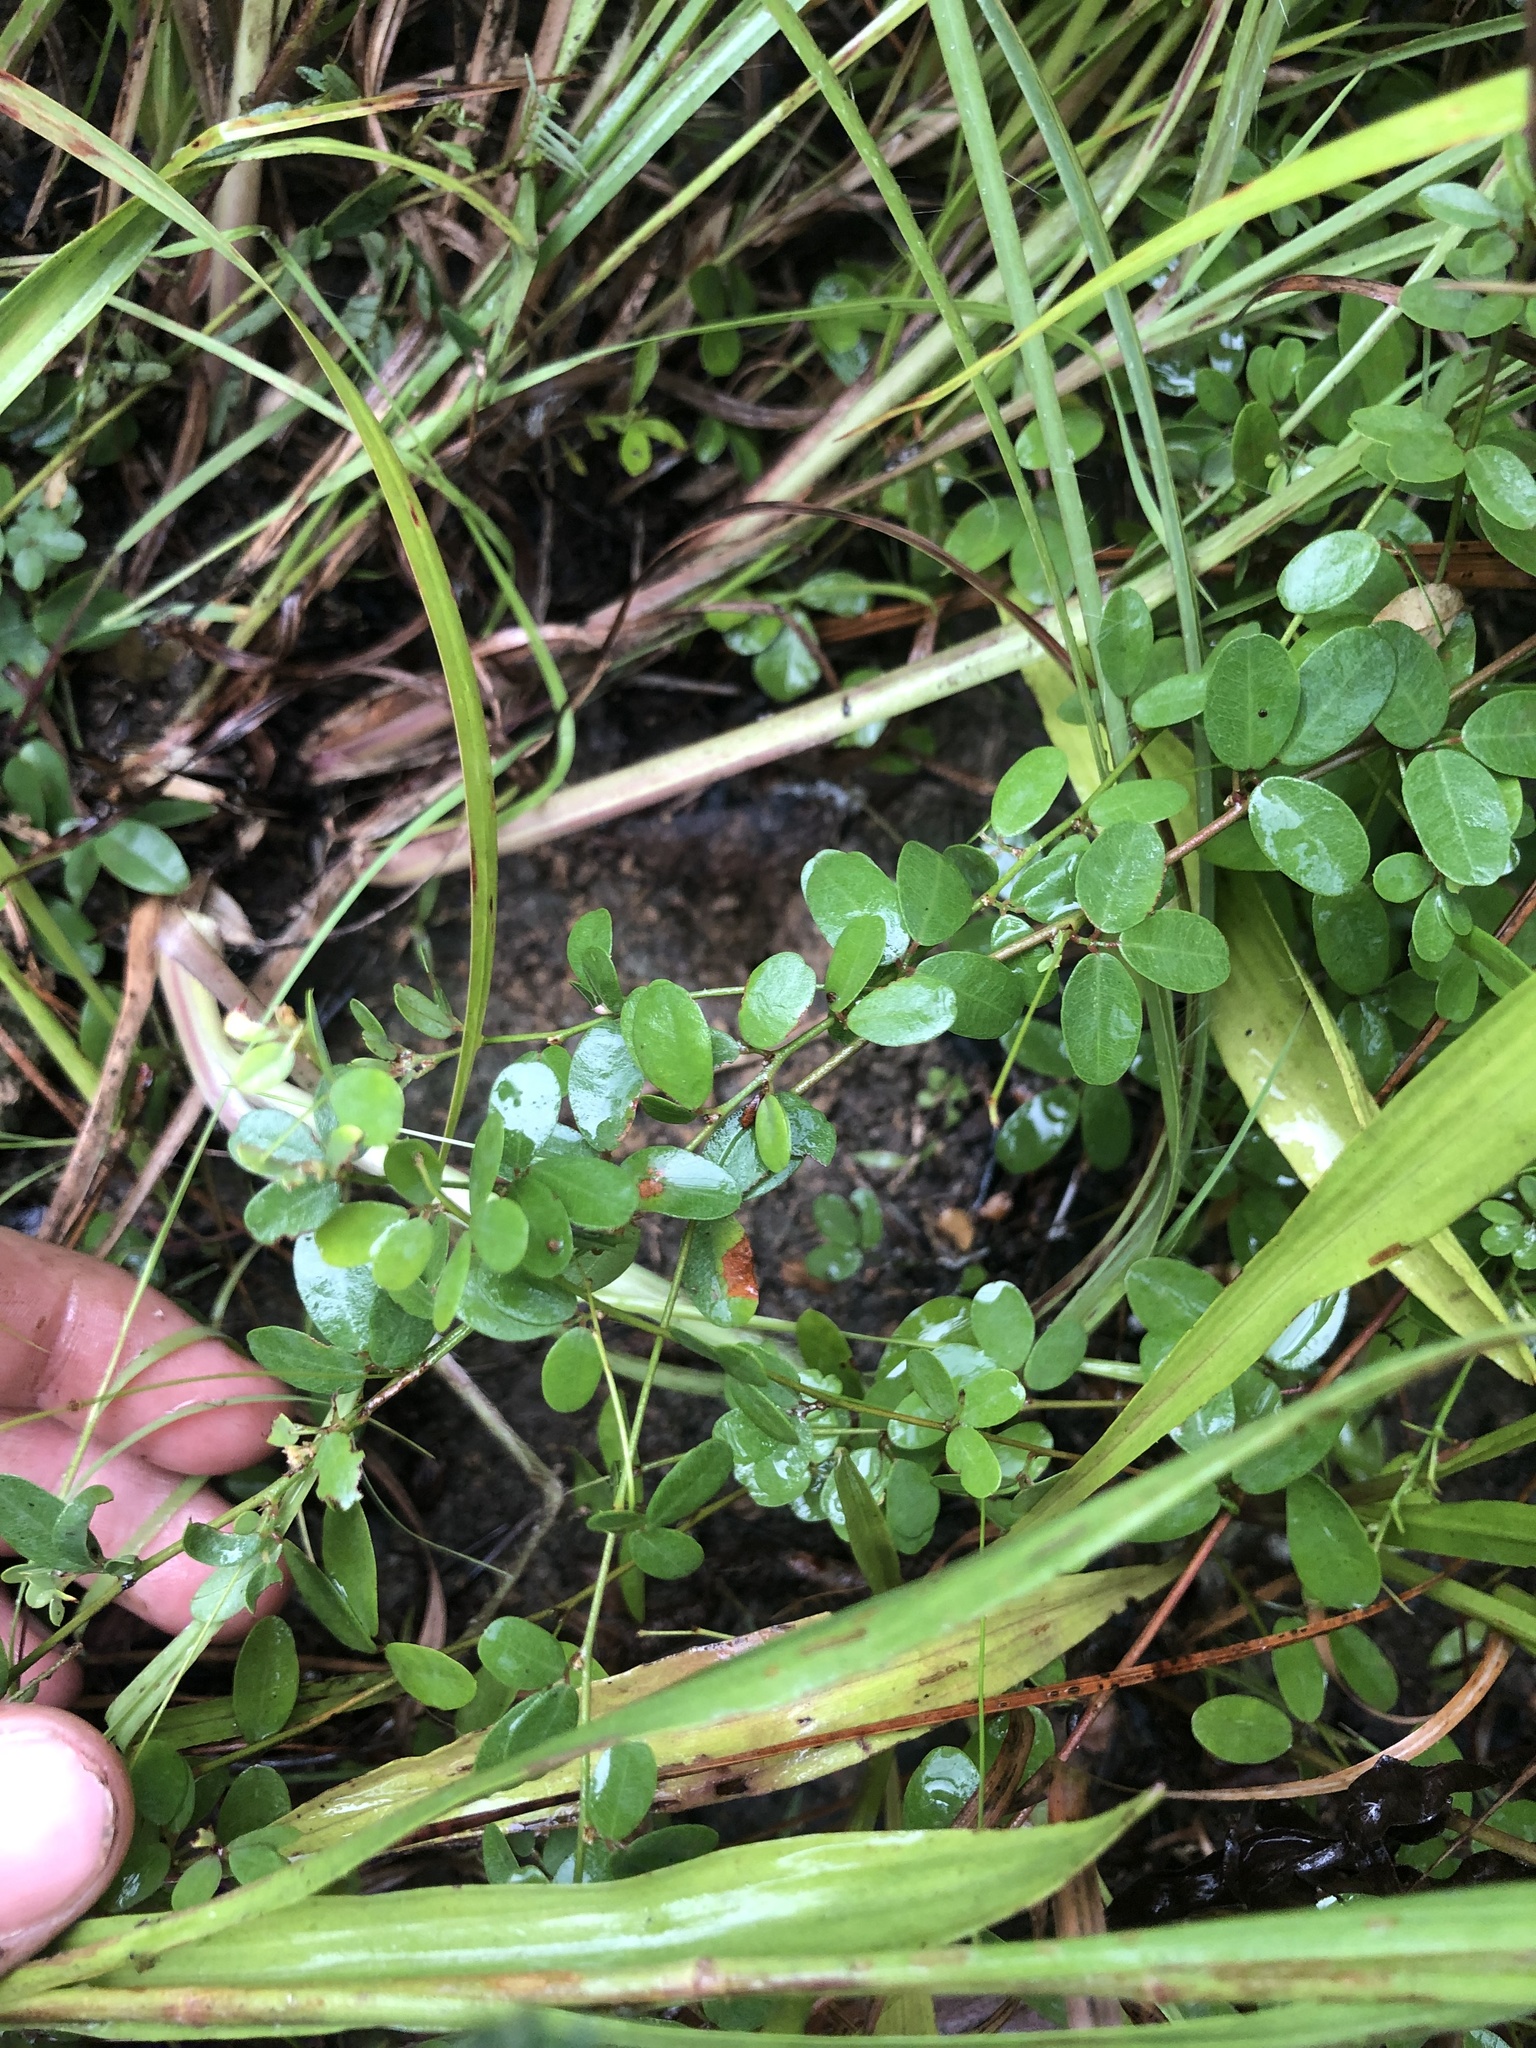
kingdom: Plantae
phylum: Tracheophyta
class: Magnoliopsida
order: Fabales
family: Fabaceae
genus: Lespedeza
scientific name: Lespedeza repens
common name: Creeping bush-clover
